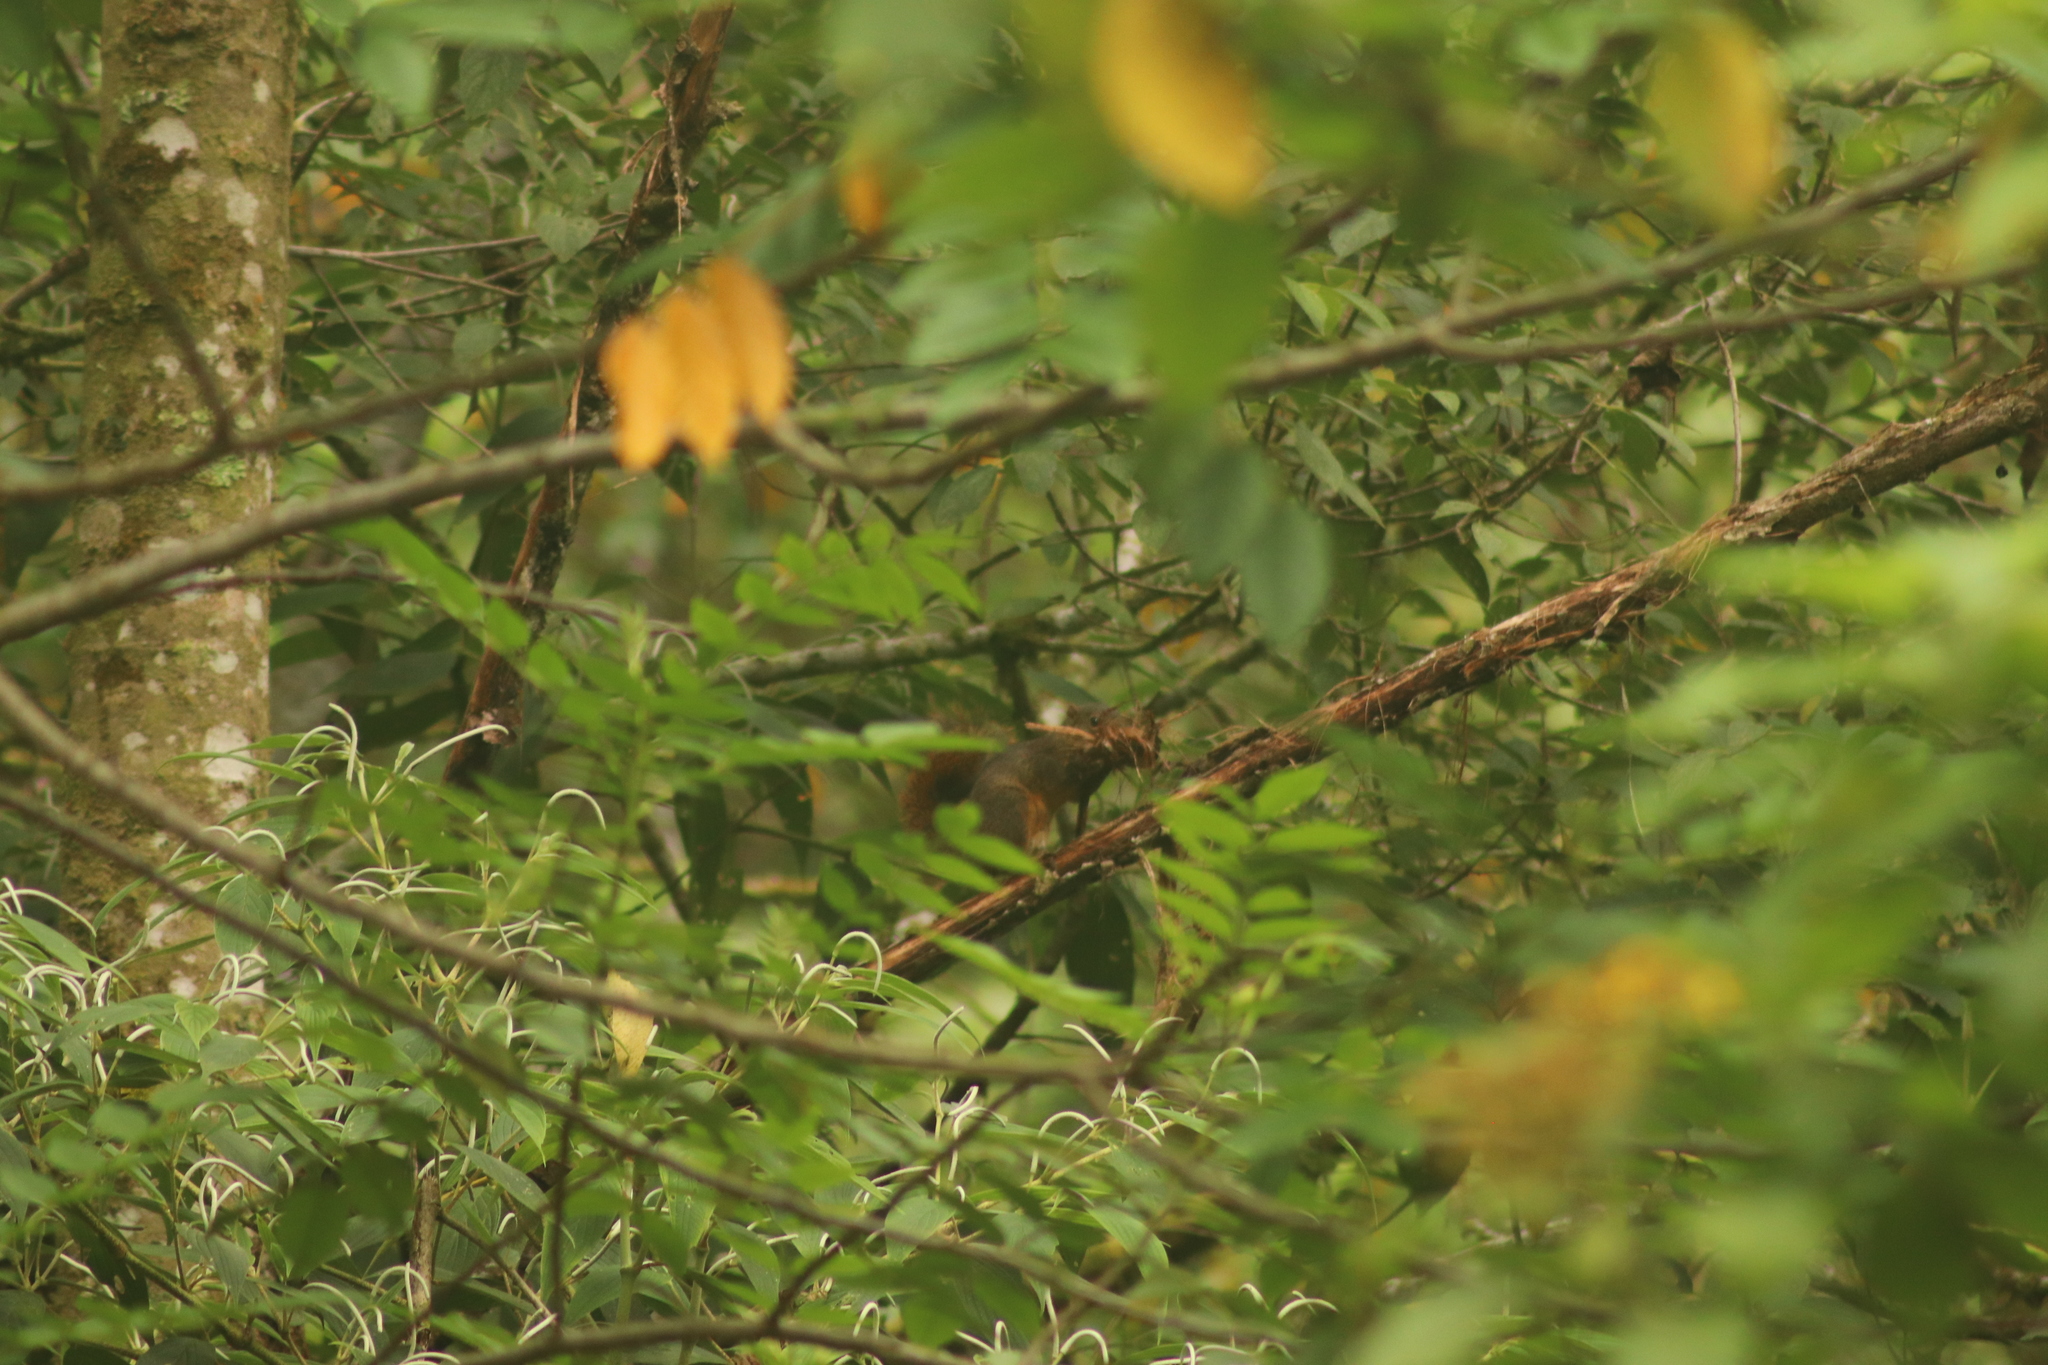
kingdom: Animalia
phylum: Chordata
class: Mammalia
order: Rodentia
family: Sciuridae
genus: Sciurus
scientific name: Sciurus granatensis
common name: Red-tailed squirrel
